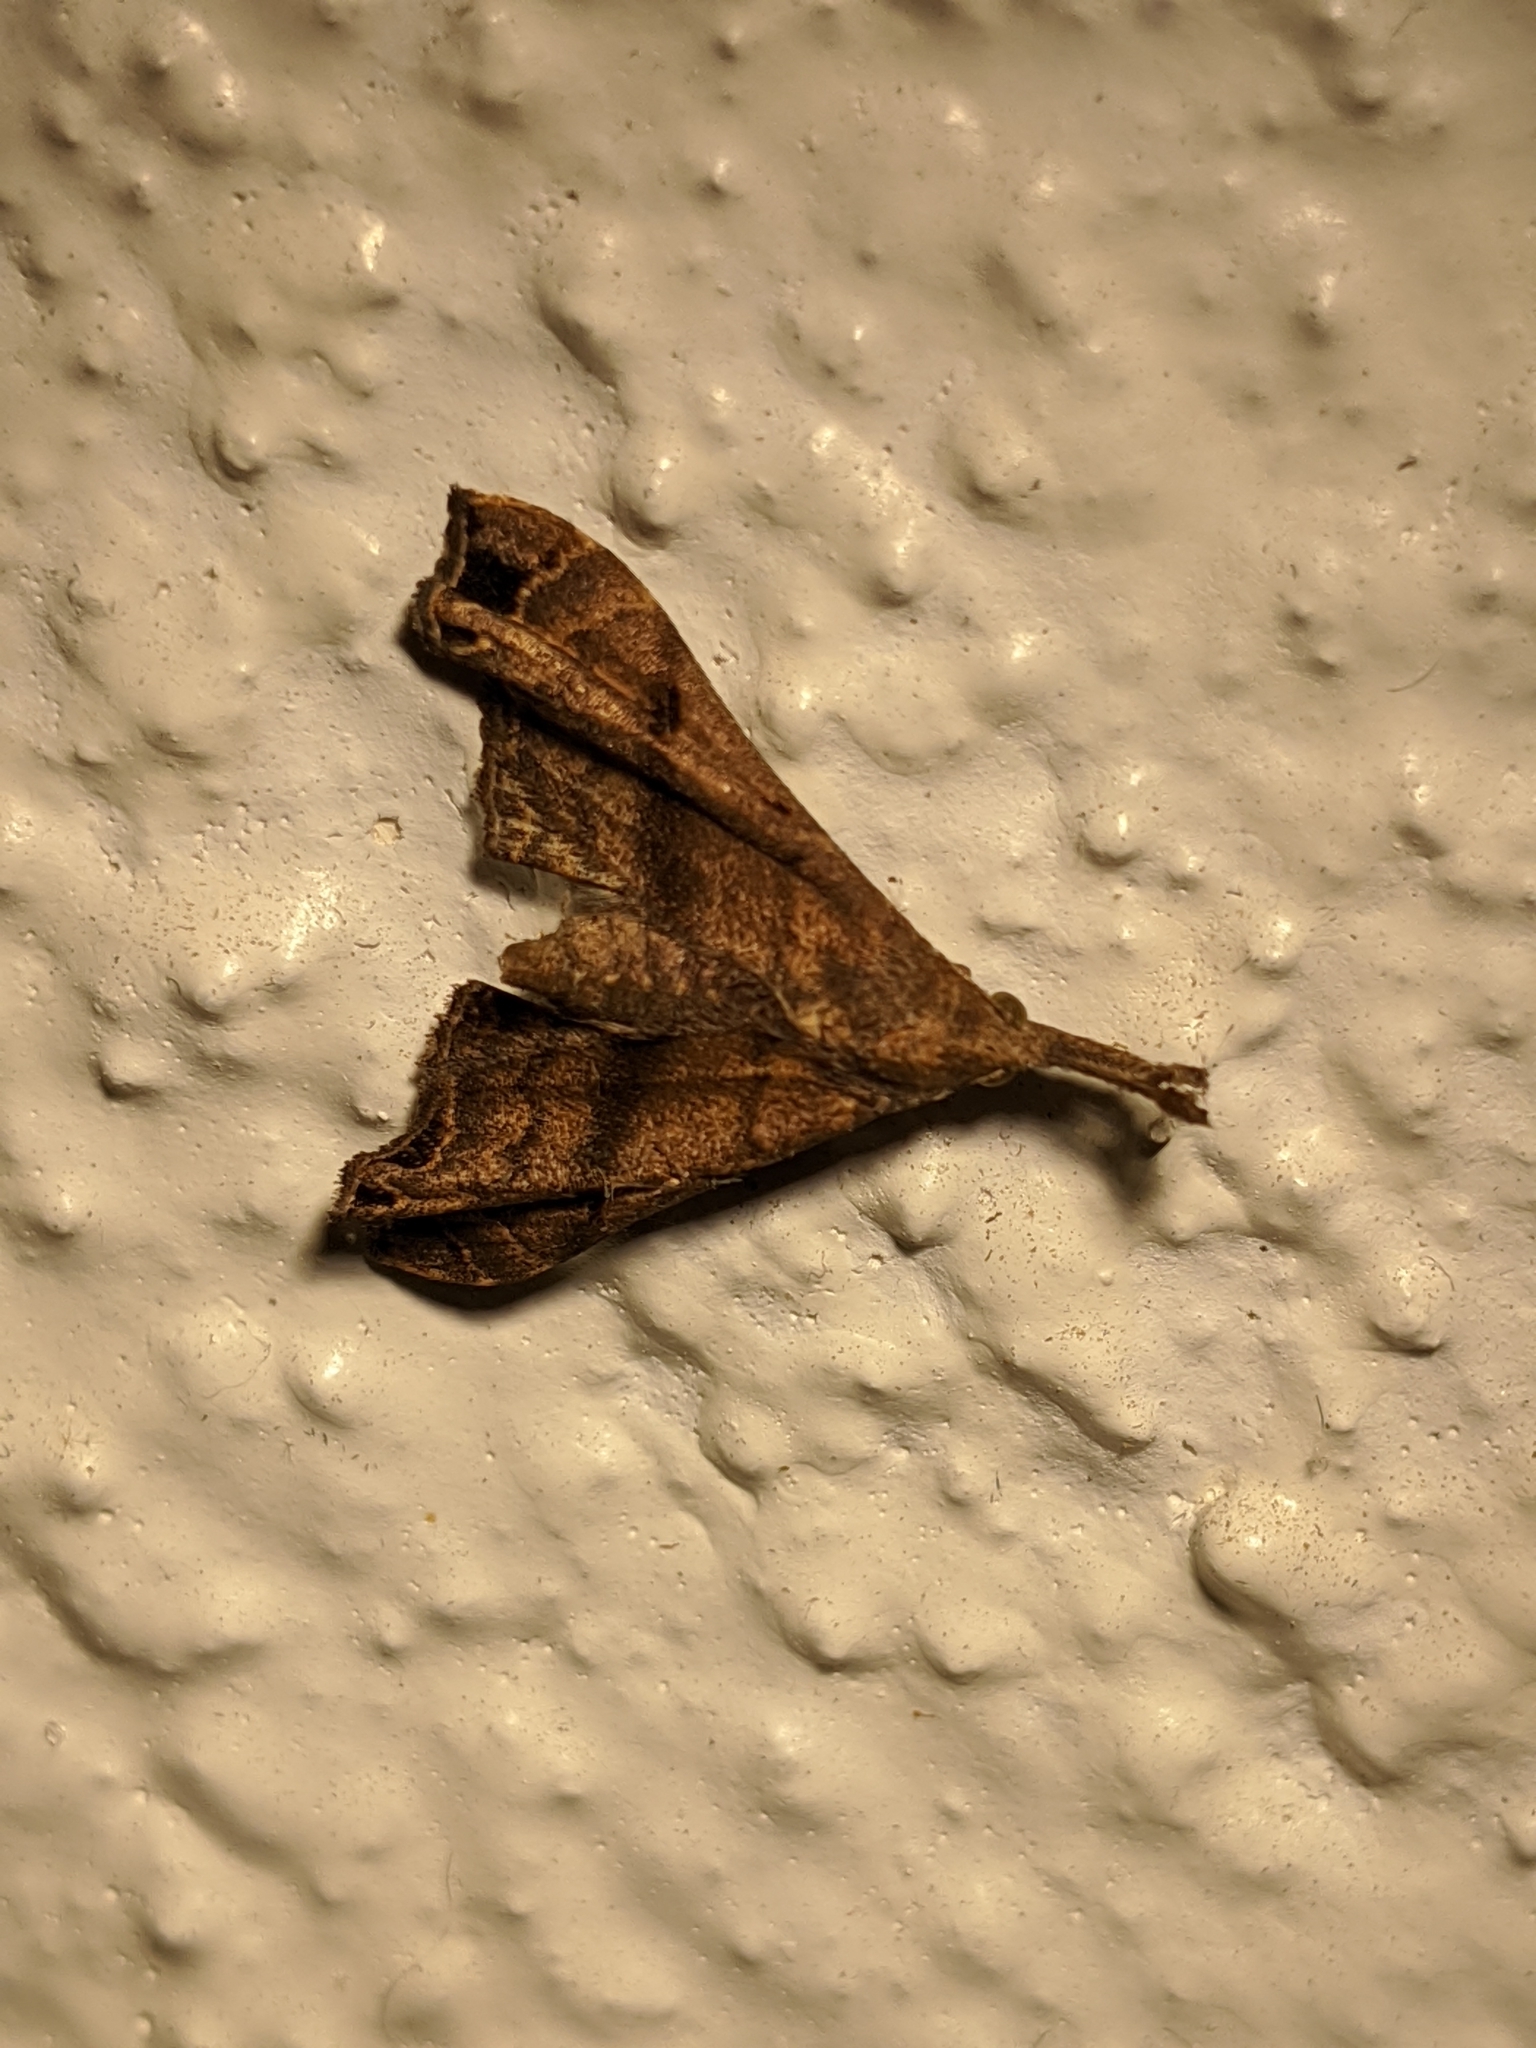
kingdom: Animalia
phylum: Arthropoda
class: Insecta
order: Lepidoptera
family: Erebidae
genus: Palthis
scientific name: Palthis asopialis
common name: Faint-spotted palthis moth
